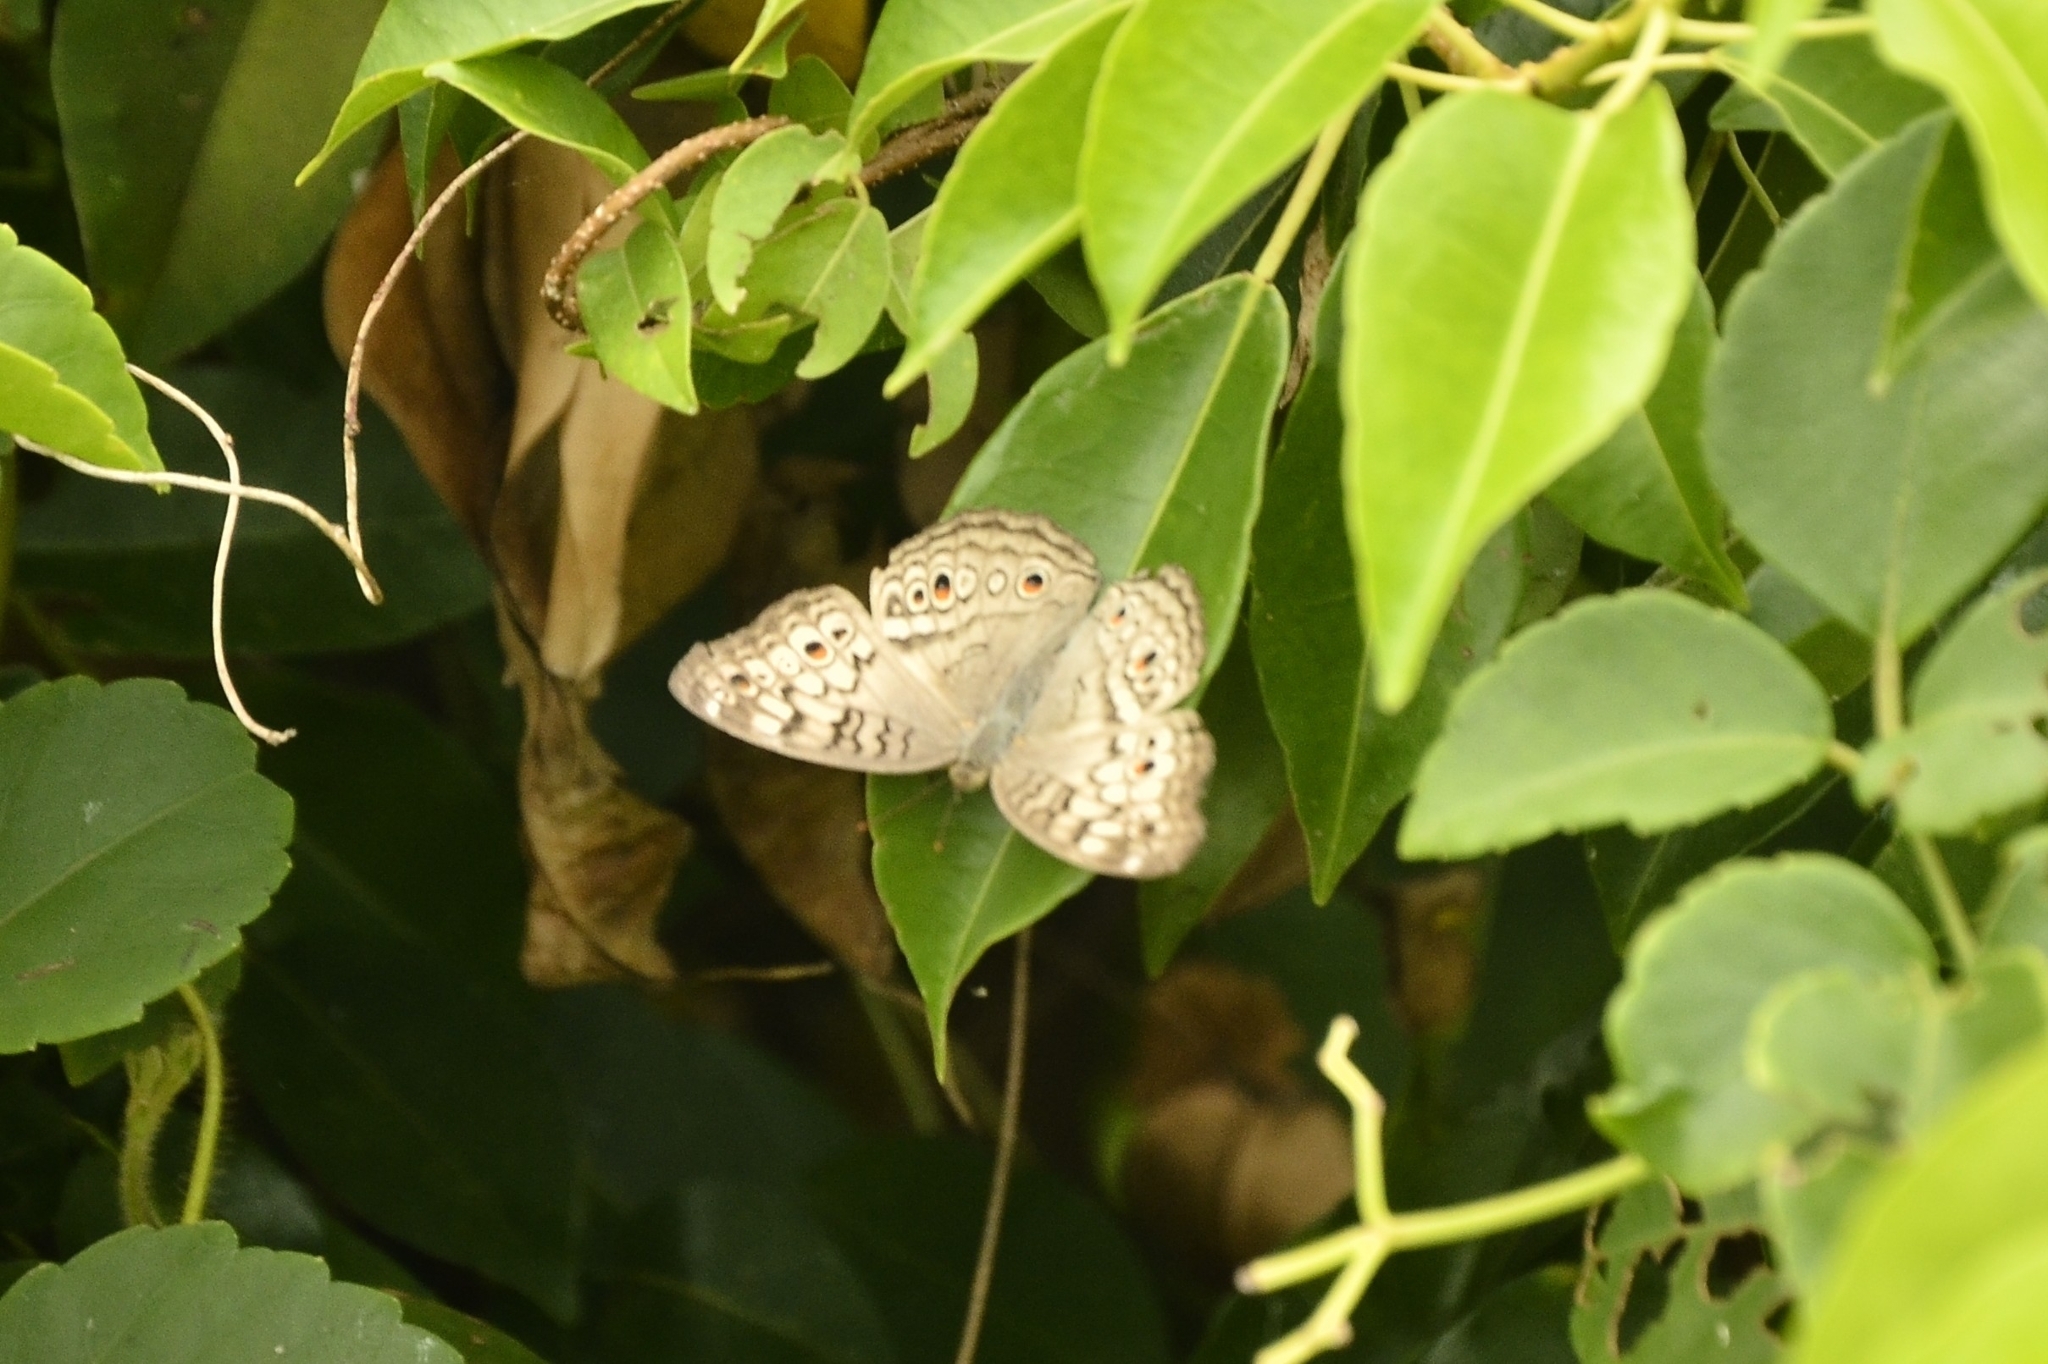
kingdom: Animalia
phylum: Arthropoda
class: Insecta
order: Lepidoptera
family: Nymphalidae
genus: Junonia
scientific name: Junonia atlites
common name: Grey pansy
